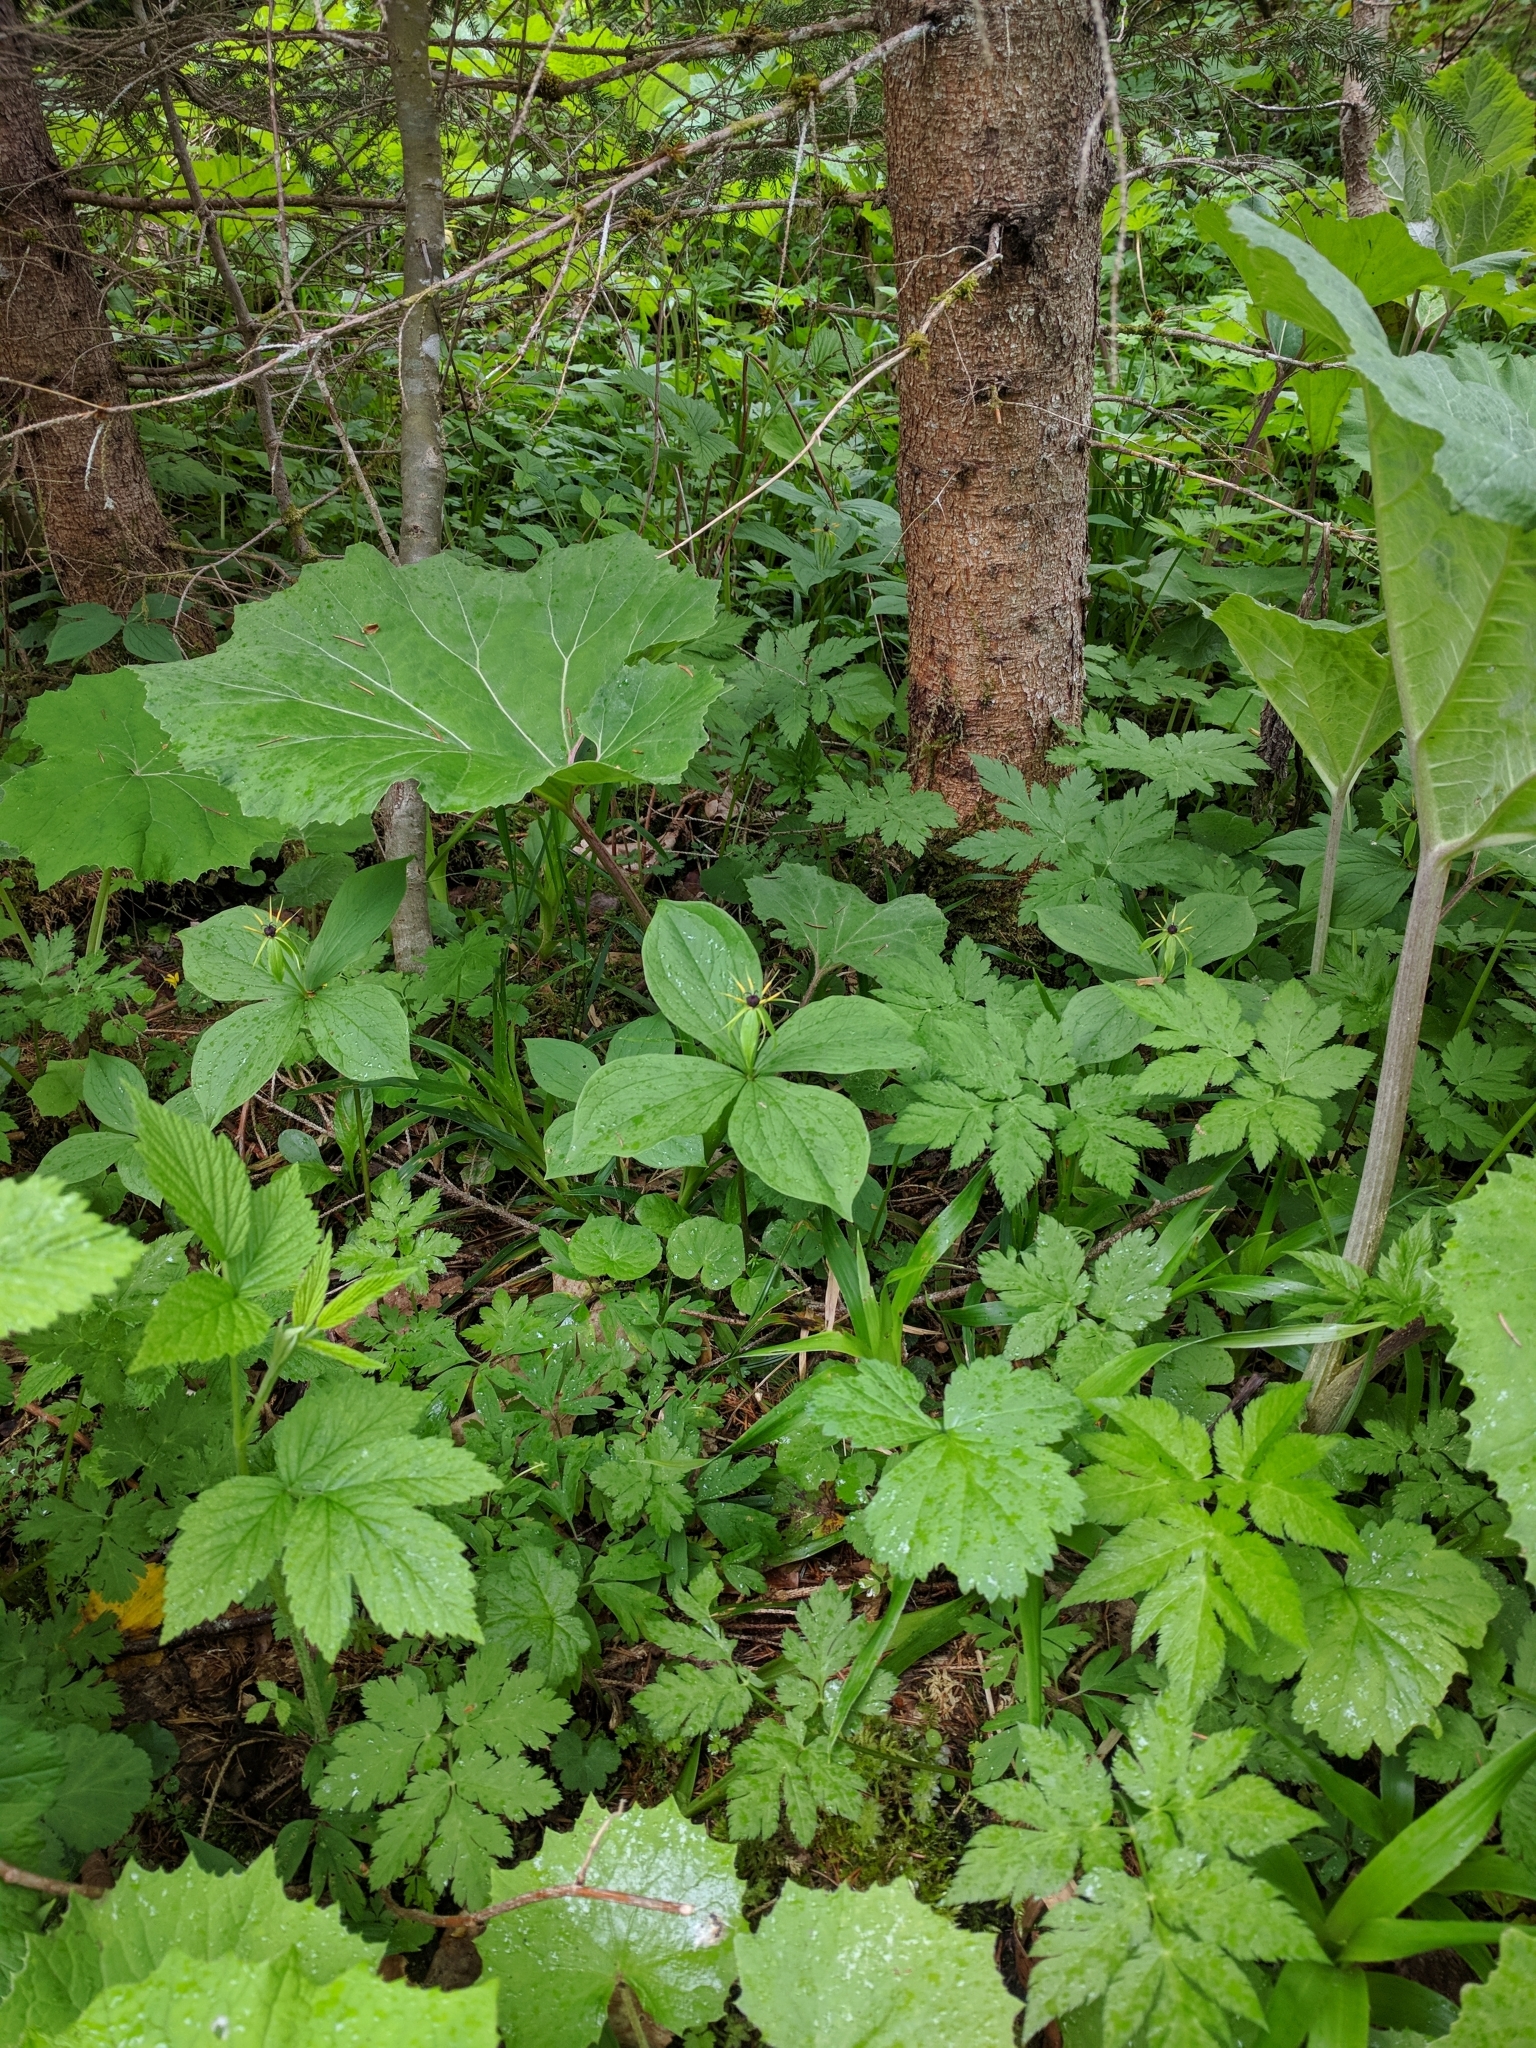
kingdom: Plantae
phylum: Tracheophyta
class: Liliopsida
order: Liliales
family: Melanthiaceae
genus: Paris
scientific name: Paris quadrifolia
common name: Herb-paris
